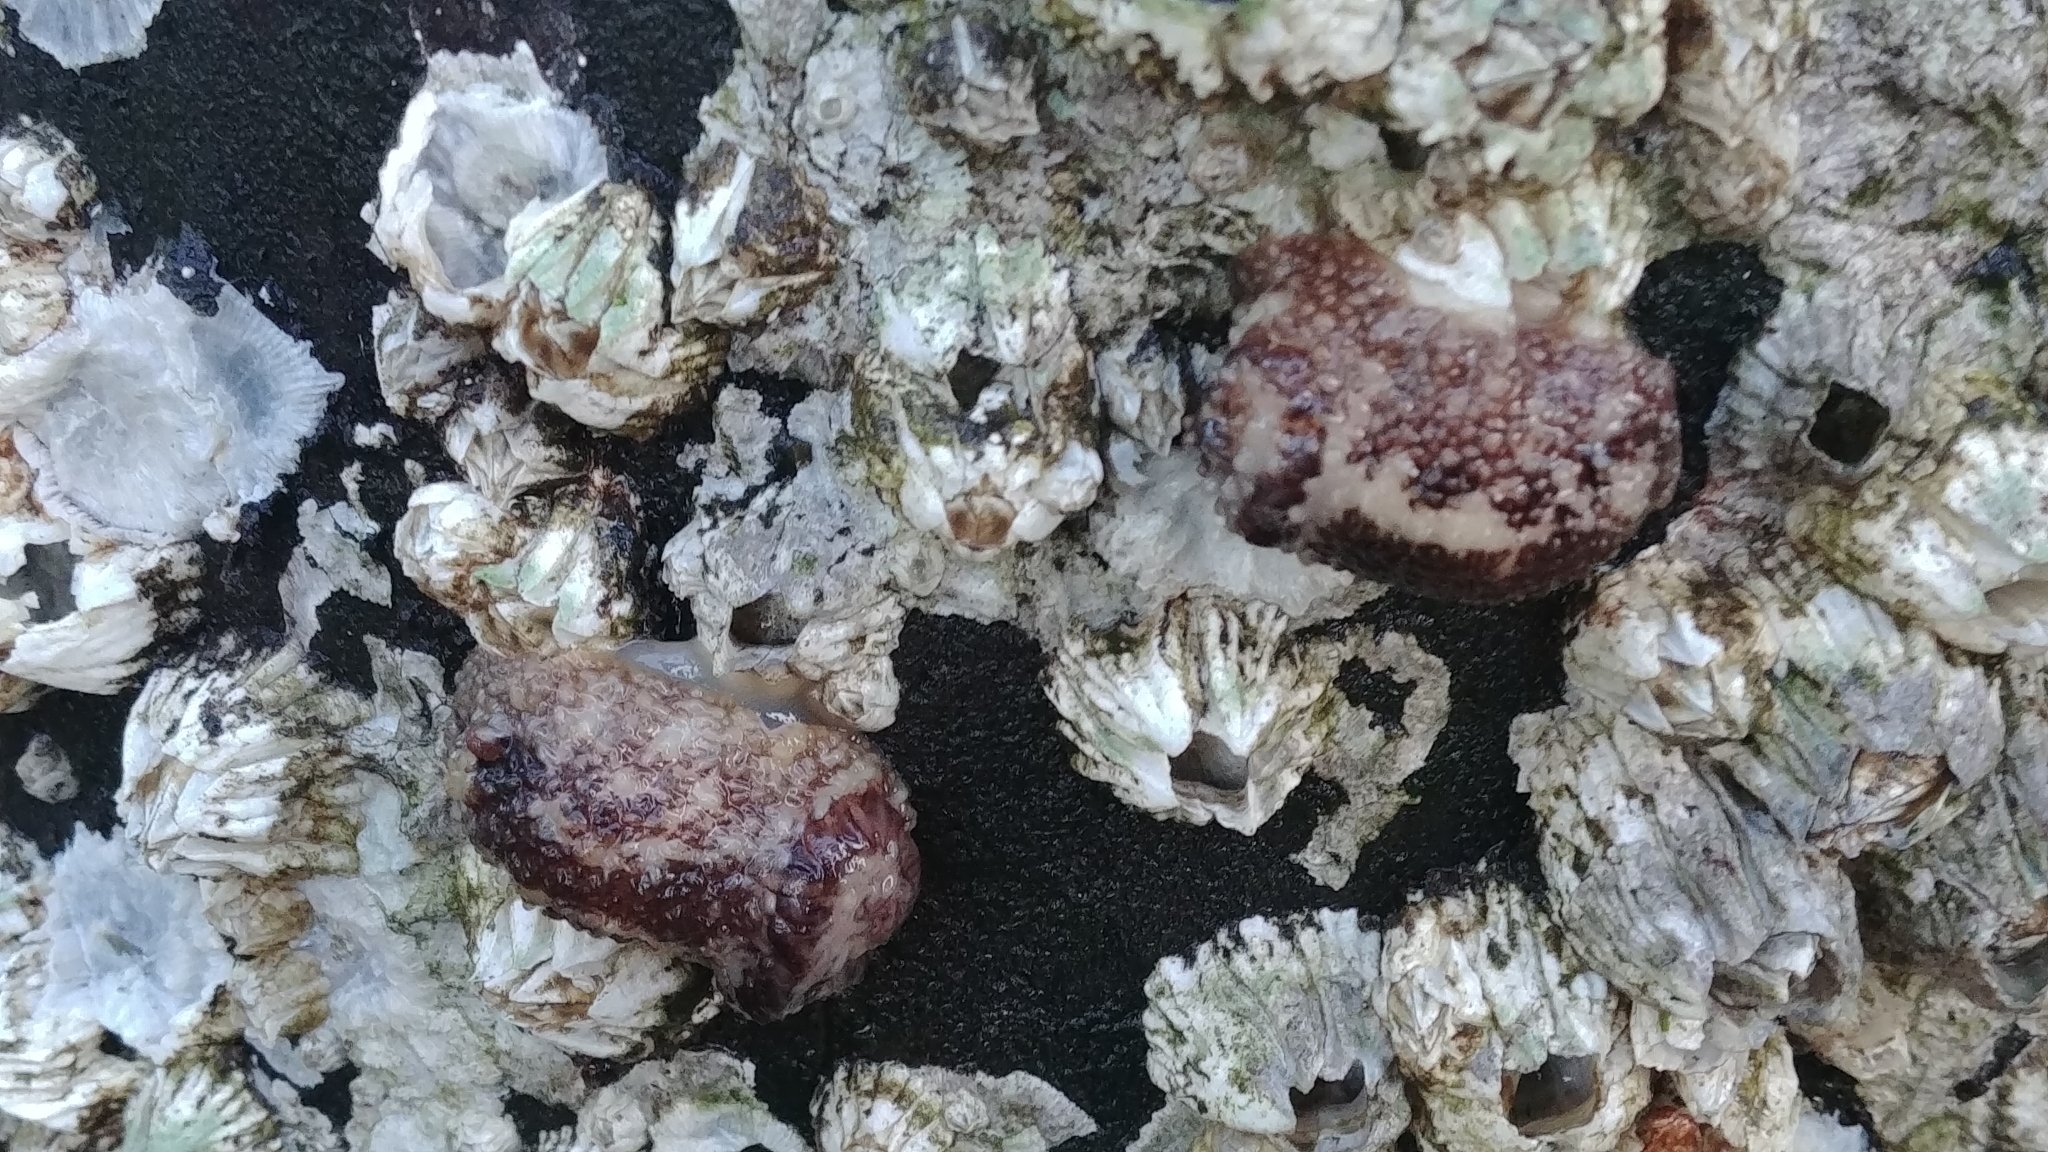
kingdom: Animalia
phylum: Mollusca
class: Gastropoda
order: Nudibranchia
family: Onchidorididae
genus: Onchidoris
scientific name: Onchidoris bilamellata
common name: Barnacle-eating onchidoris
